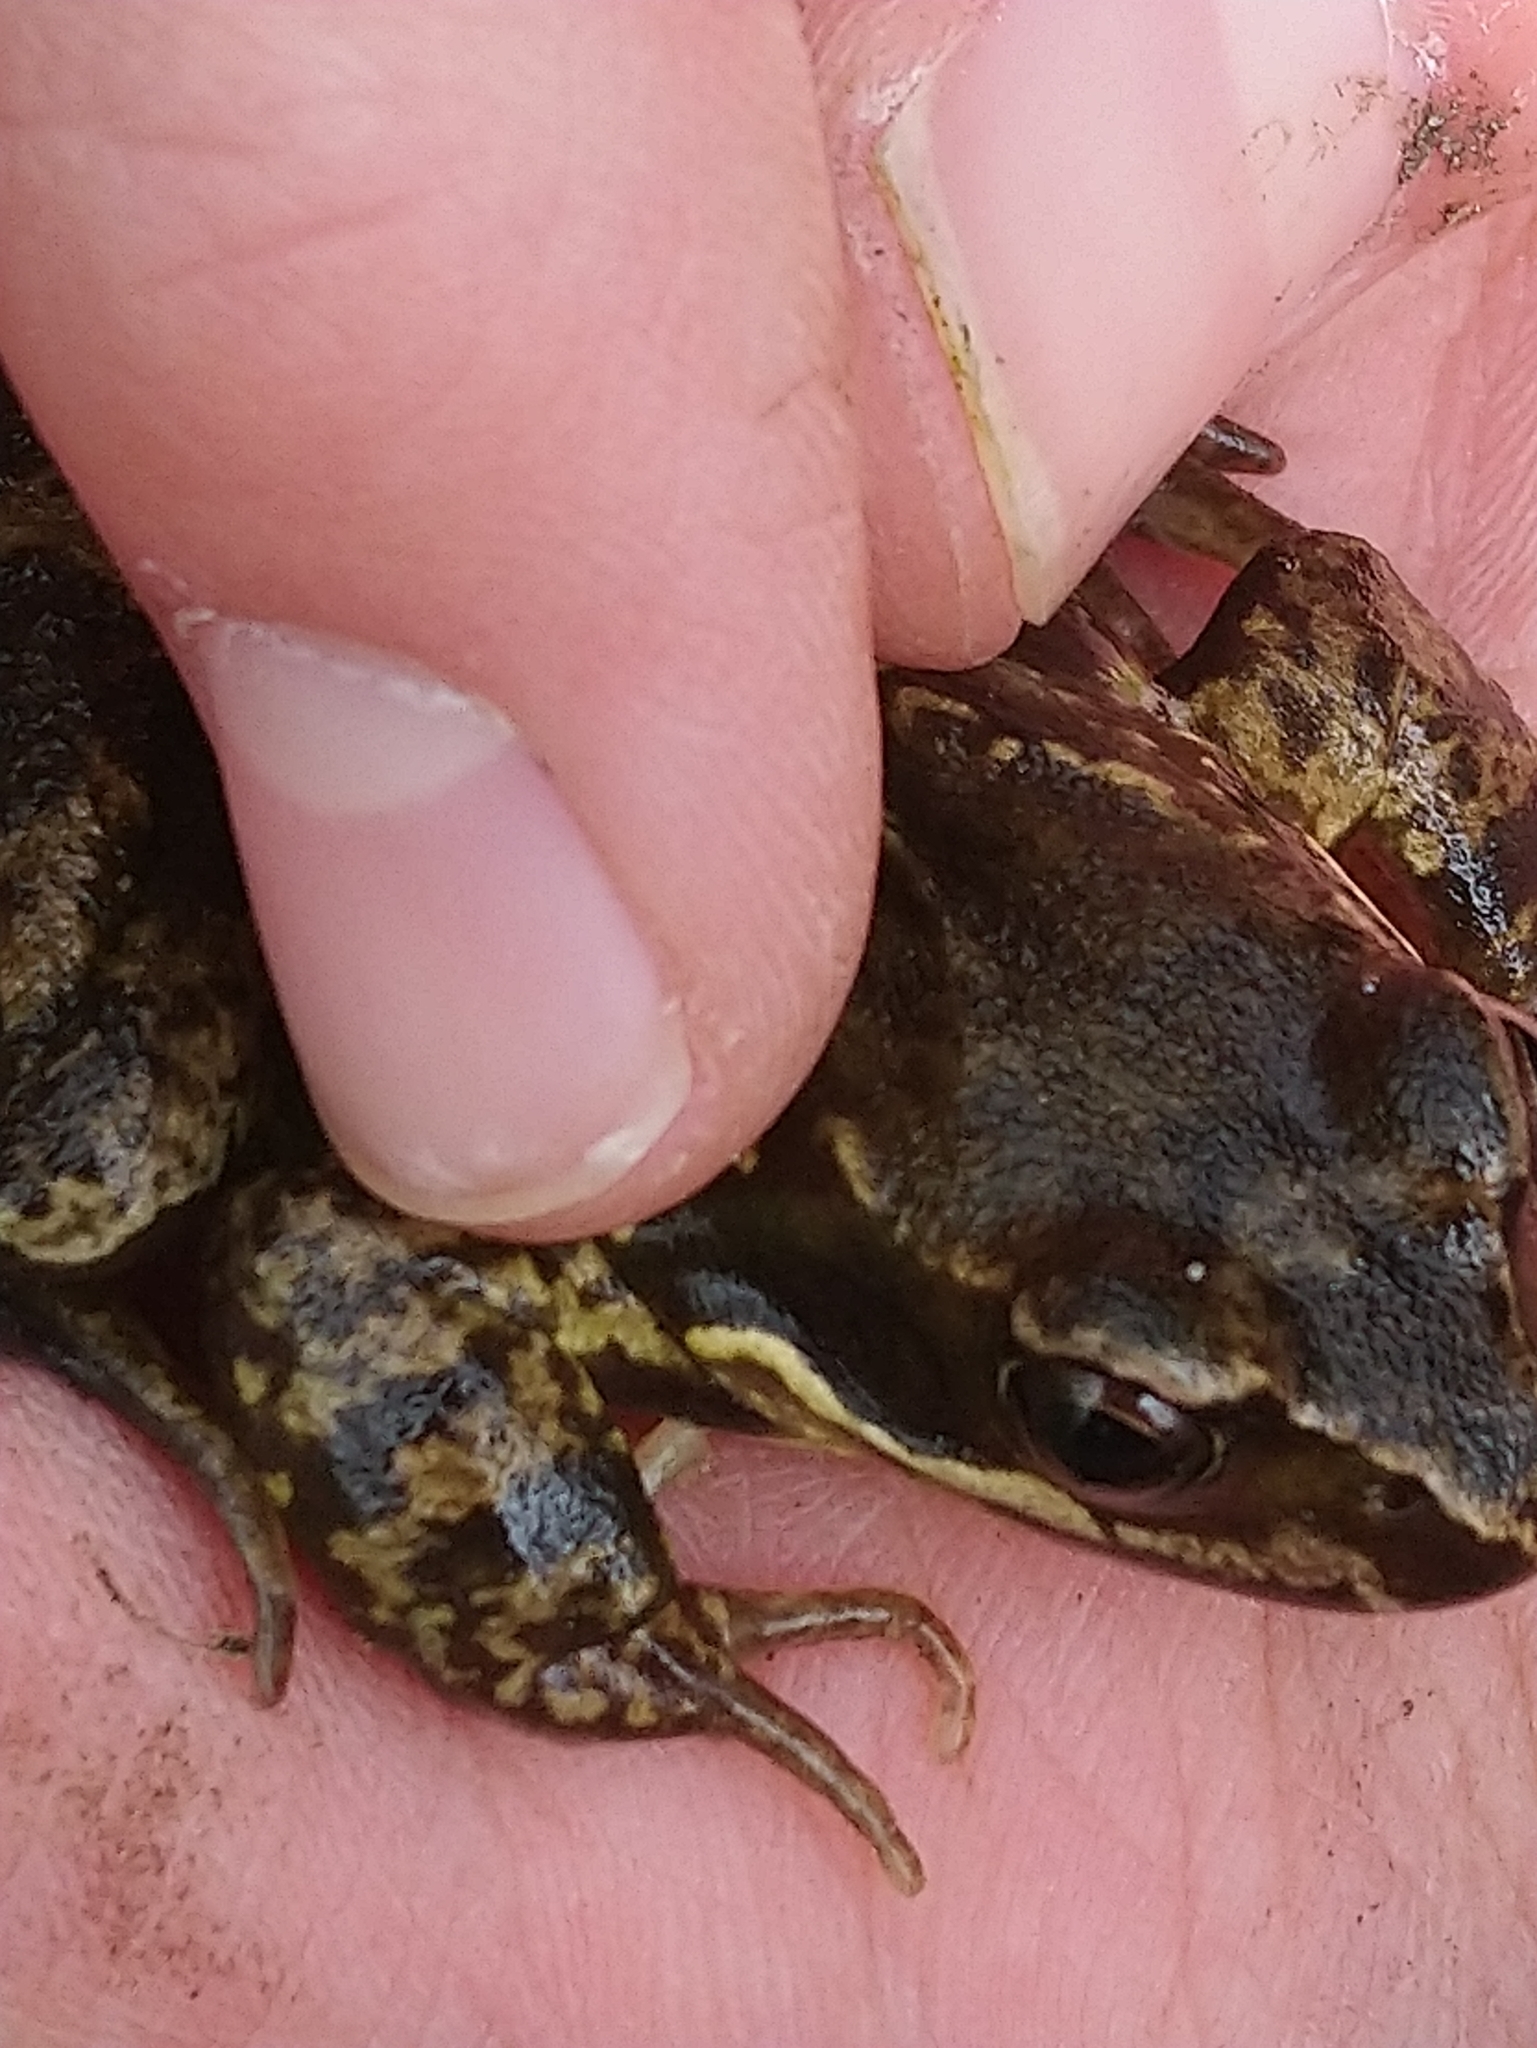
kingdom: Animalia
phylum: Chordata
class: Amphibia
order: Anura
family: Ranidae
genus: Rana
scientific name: Rana temporaria
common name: Common frog
